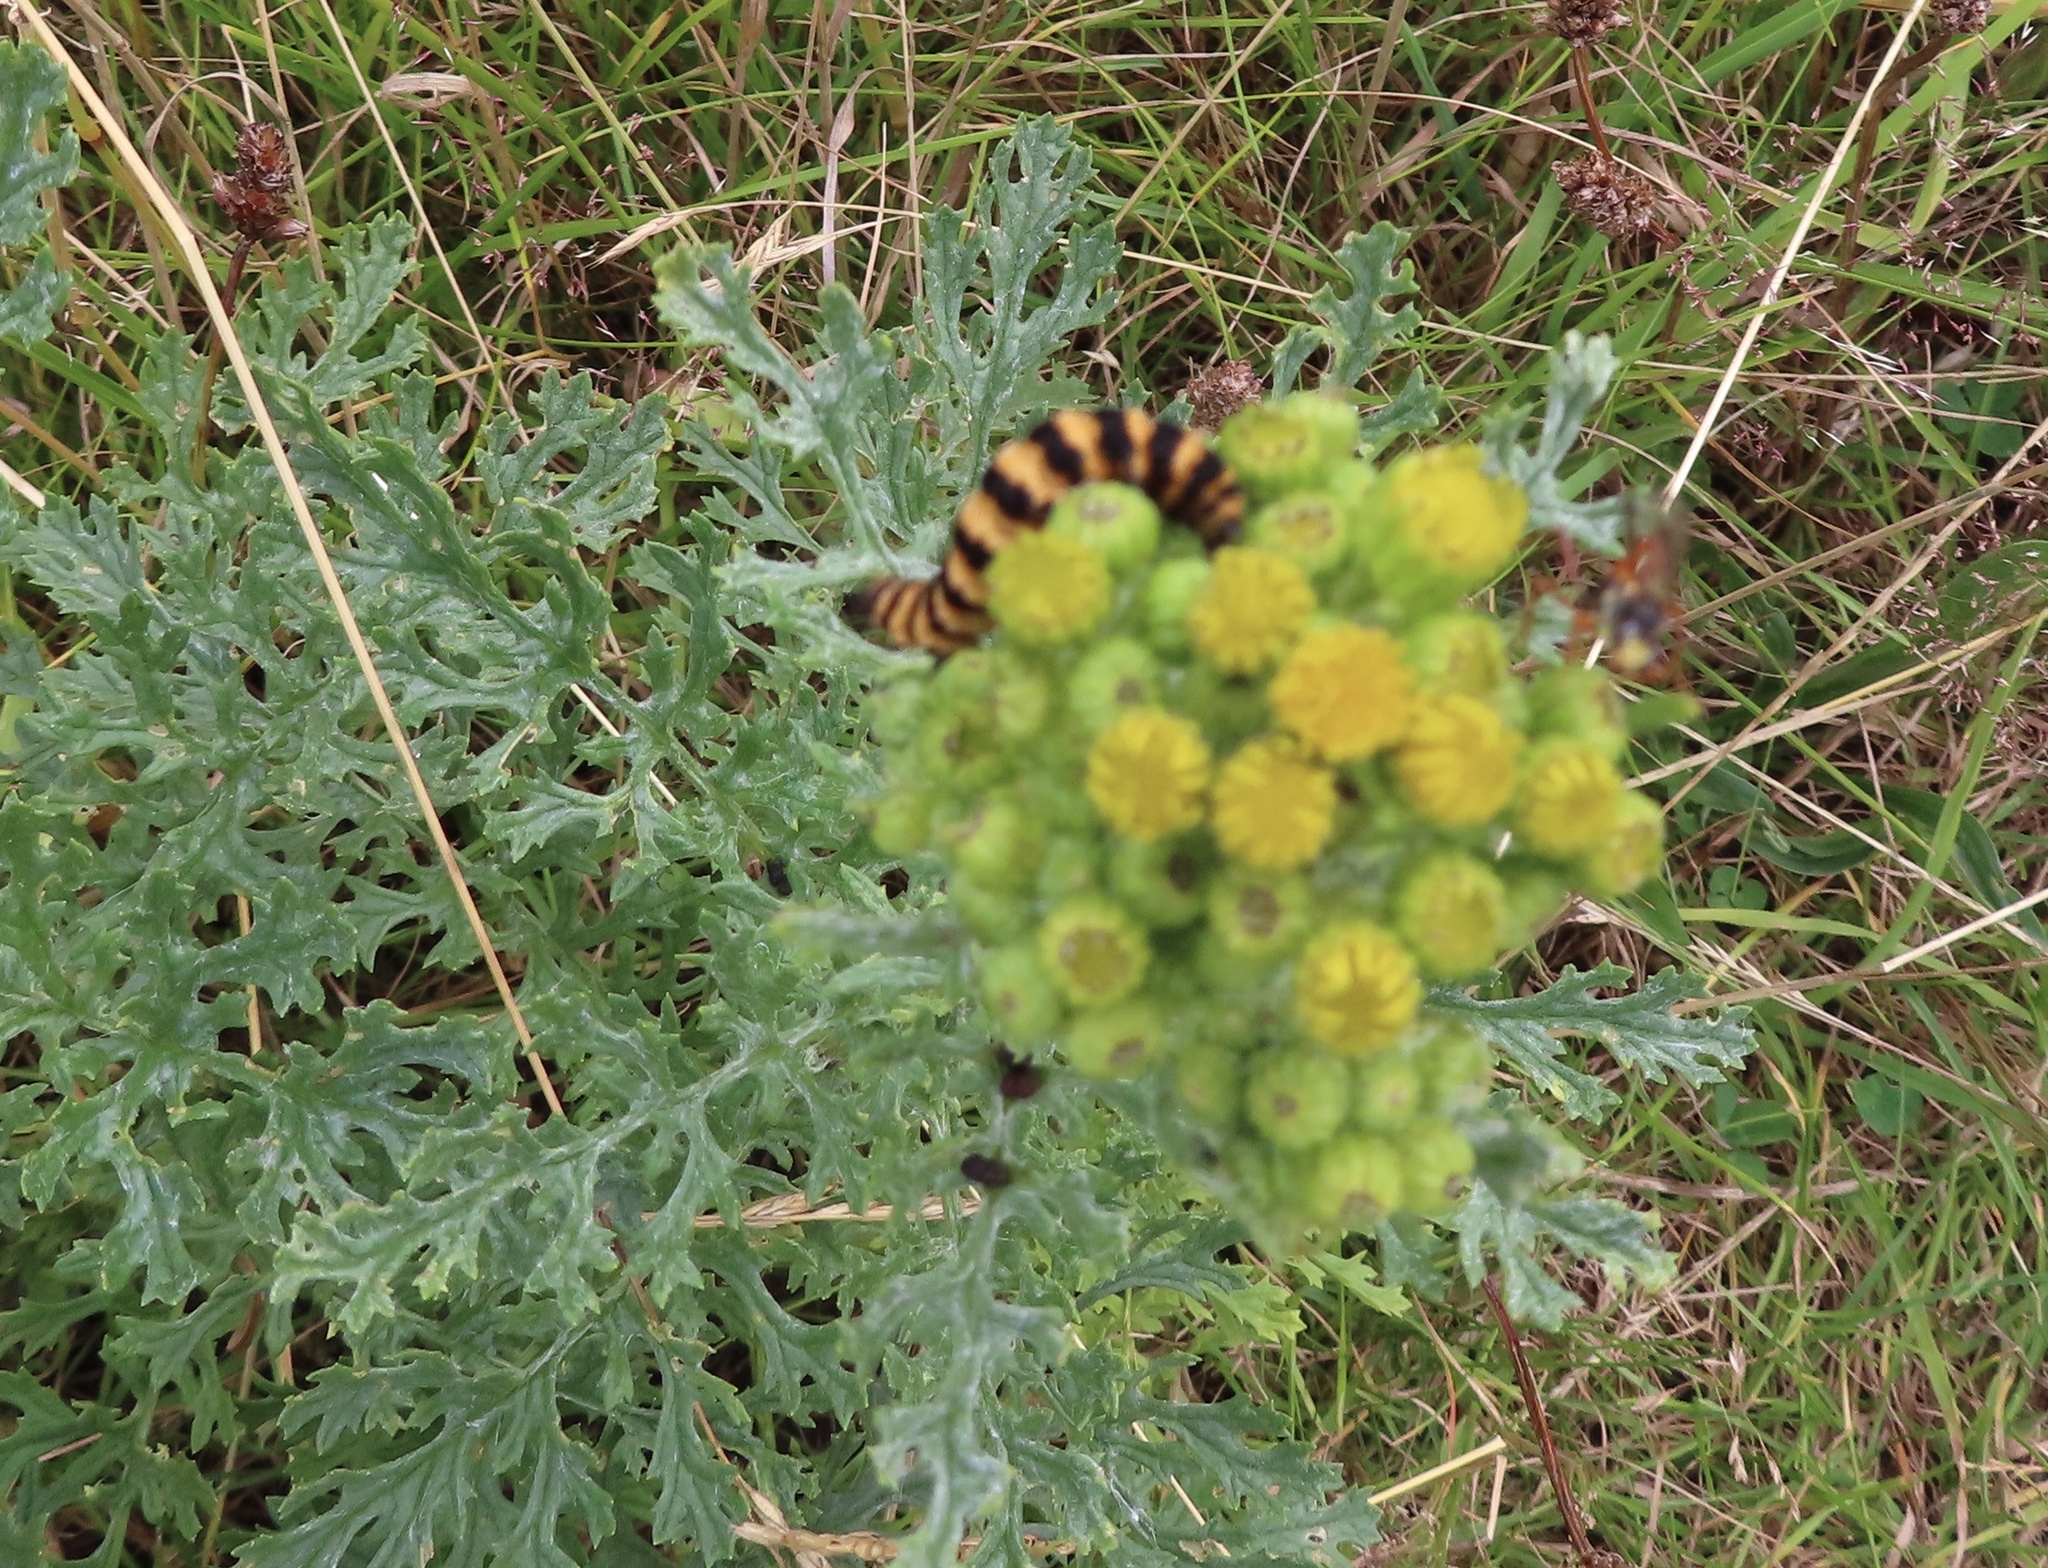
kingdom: Animalia
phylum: Arthropoda
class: Insecta
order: Lepidoptera
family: Erebidae
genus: Tyria
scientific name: Tyria jacobaeae
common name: Cinnabar
